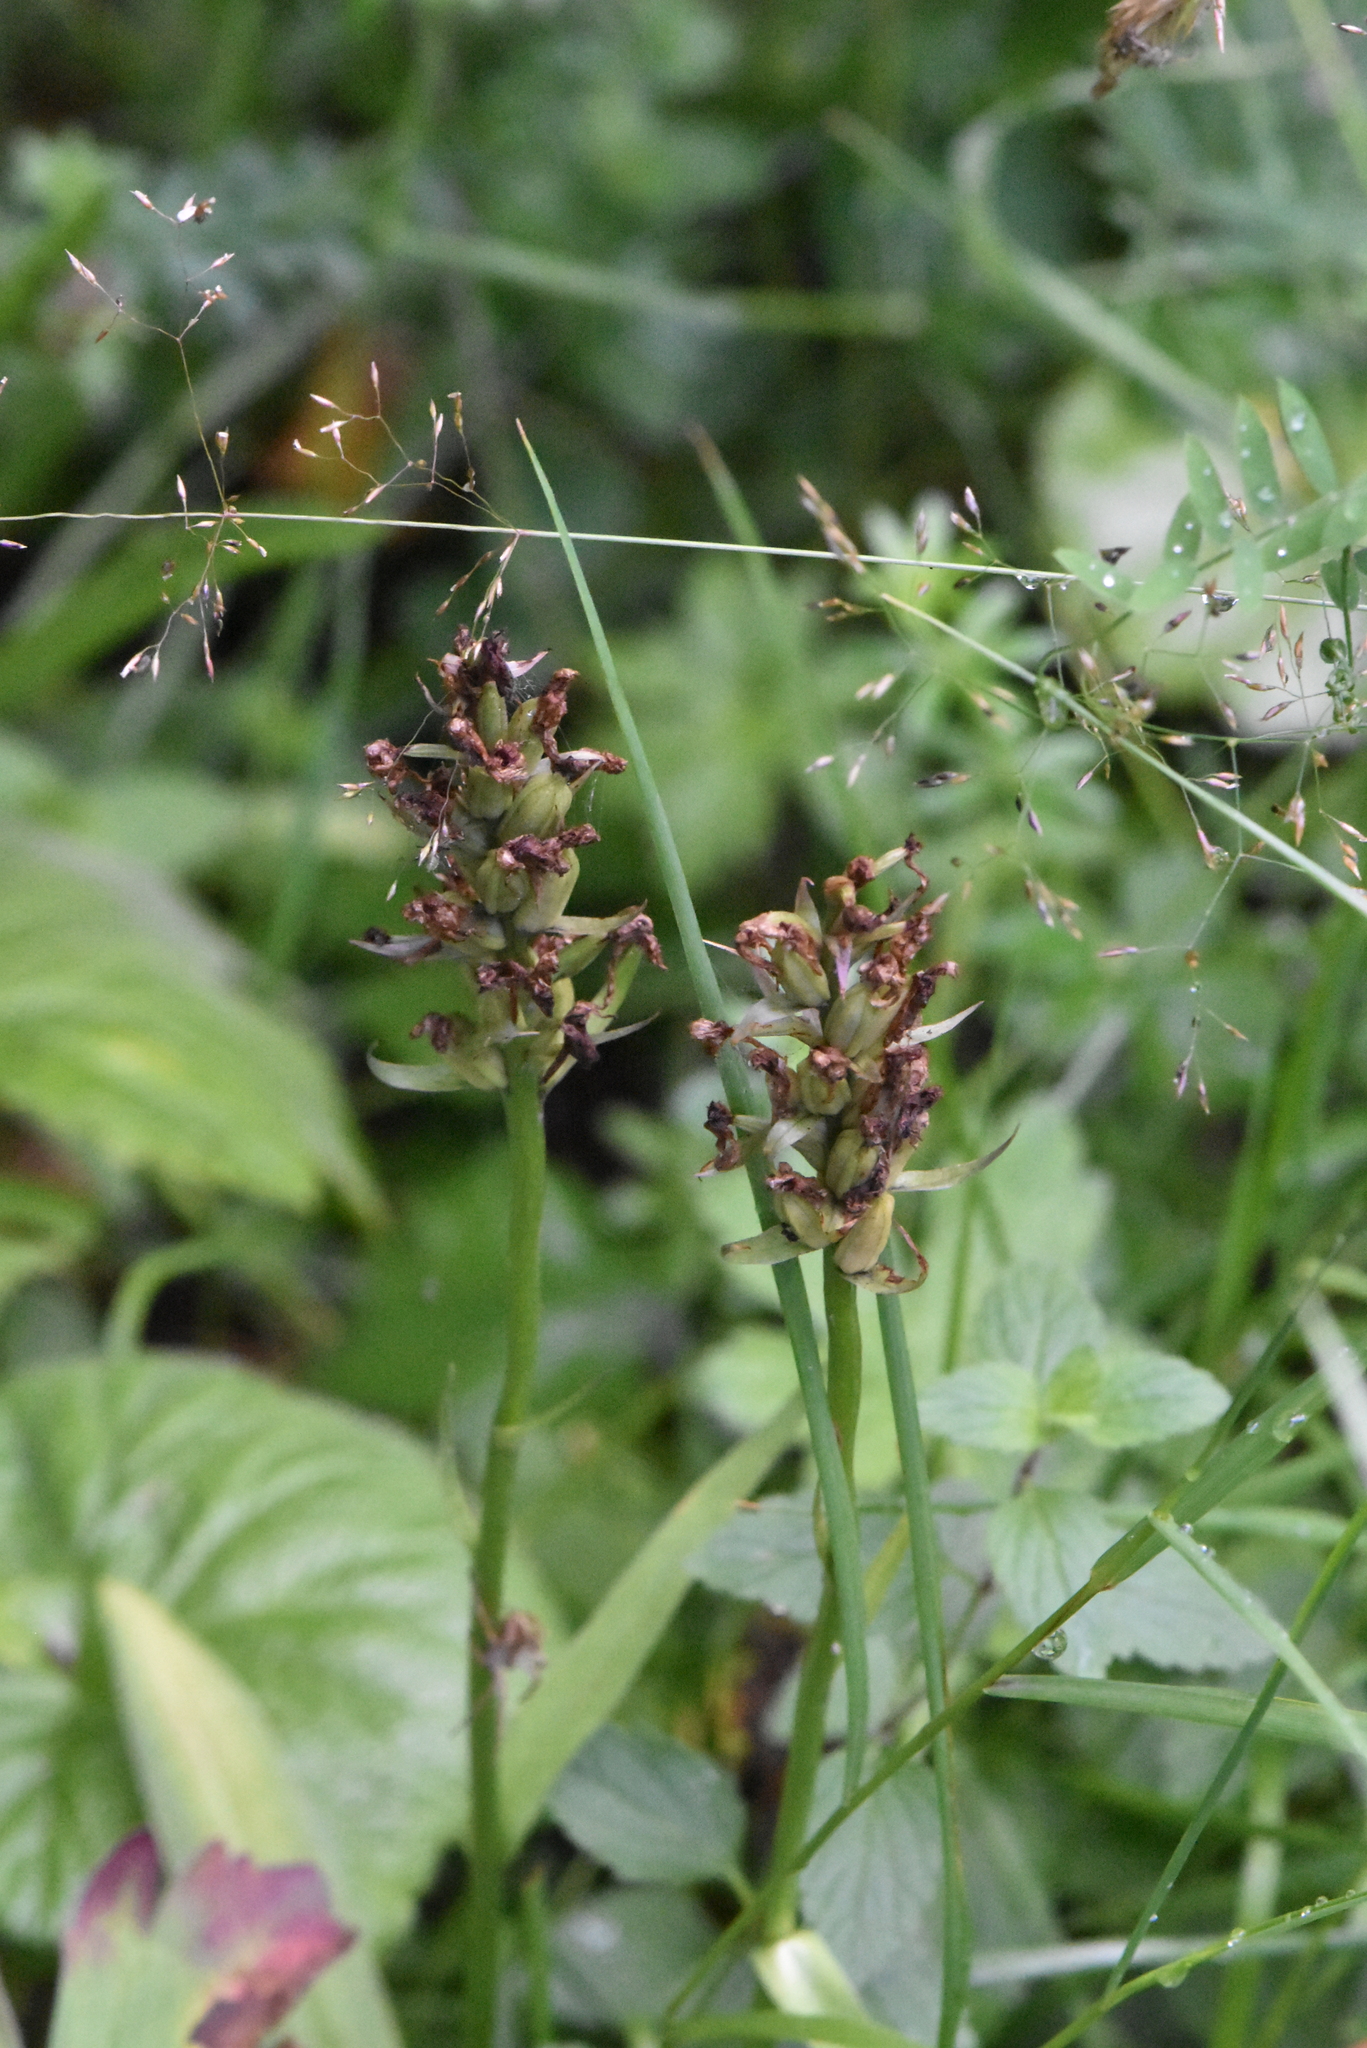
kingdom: Plantae
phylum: Tracheophyta
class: Liliopsida
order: Asparagales
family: Orchidaceae
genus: Dactylorhiza
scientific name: Dactylorhiza maculata
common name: Heath spotted-orchid
